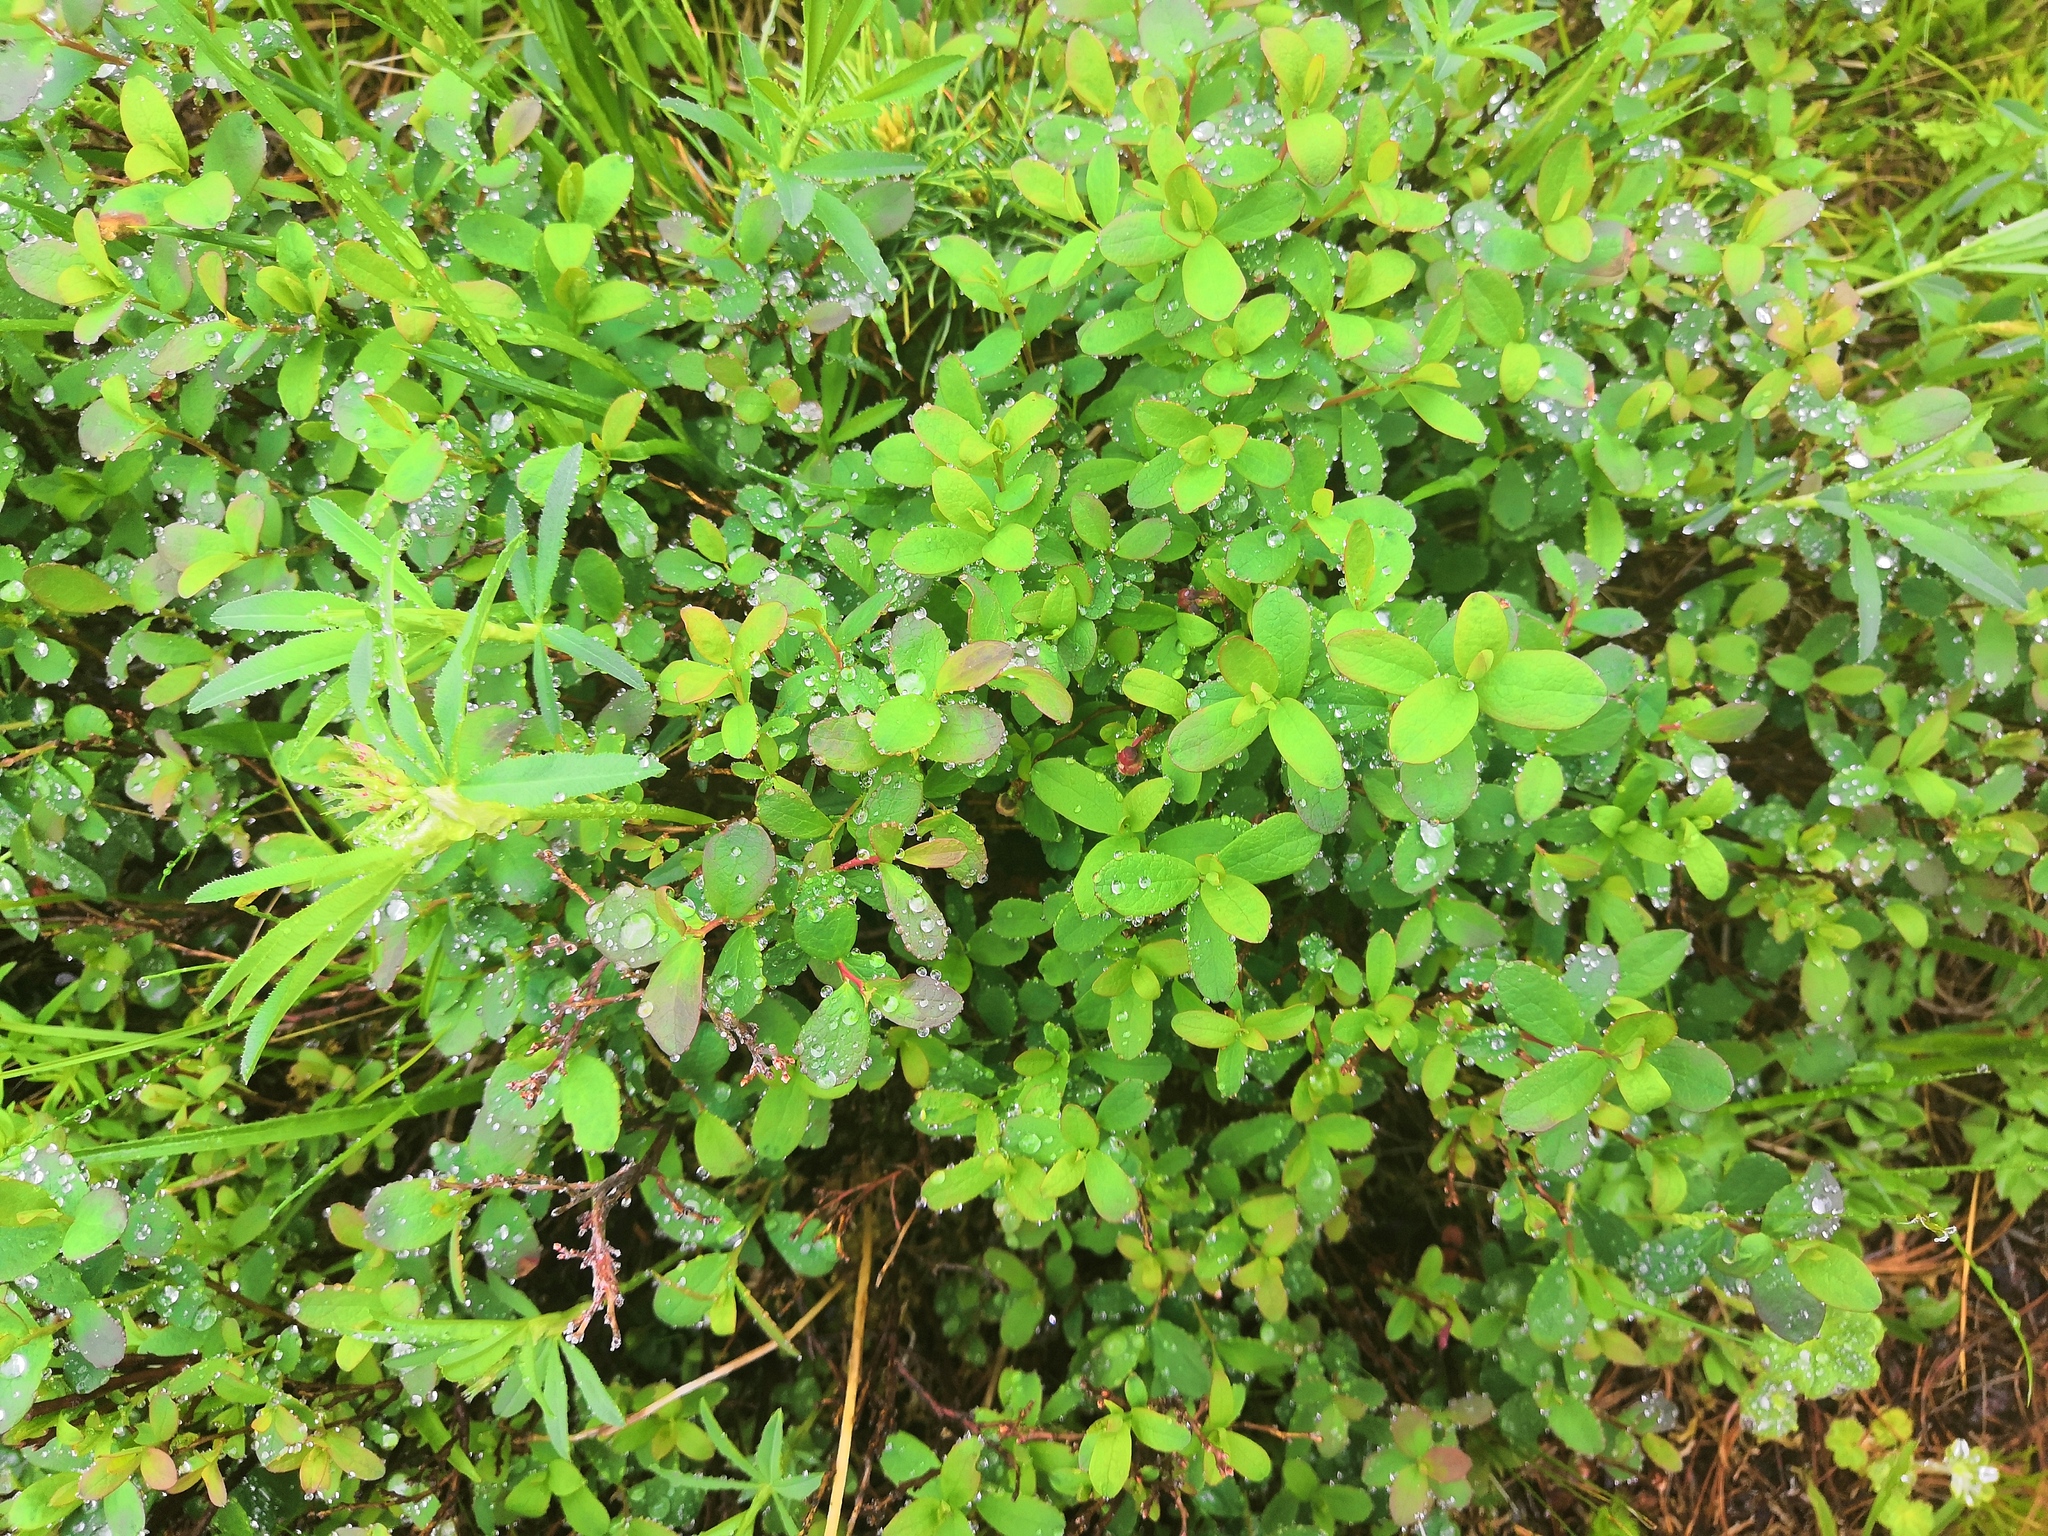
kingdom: Plantae
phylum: Tracheophyta
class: Magnoliopsida
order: Ericales
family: Ericaceae
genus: Vaccinium
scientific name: Vaccinium uliginosum
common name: Bog bilberry
